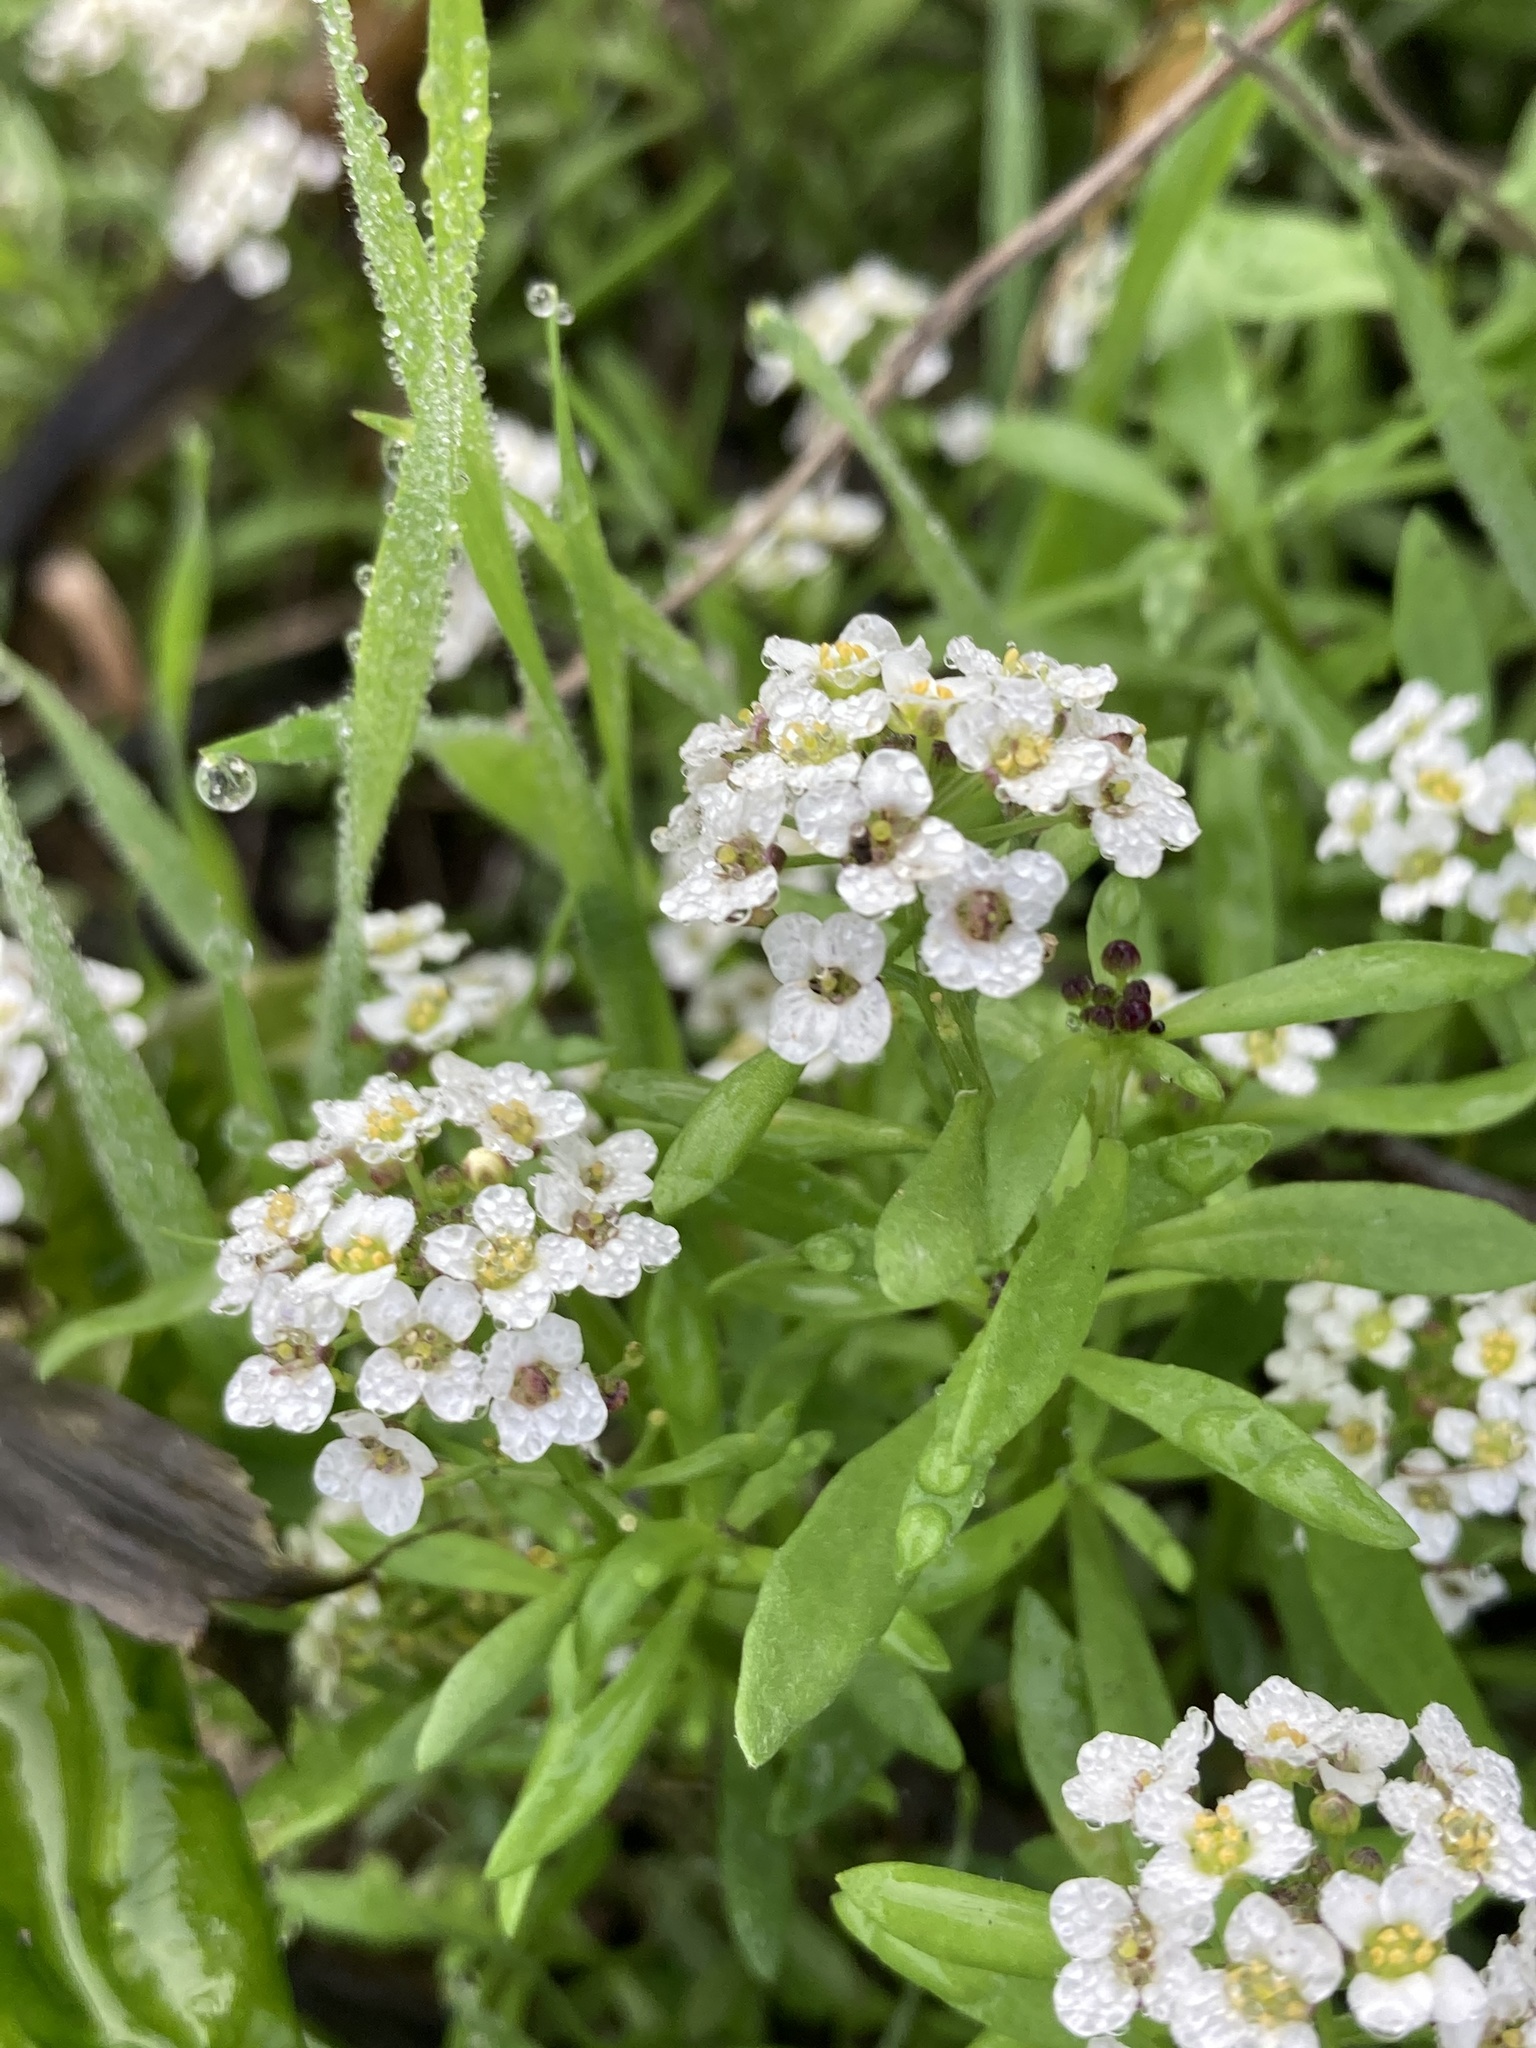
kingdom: Plantae
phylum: Tracheophyta
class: Magnoliopsida
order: Brassicales
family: Brassicaceae
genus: Lobularia
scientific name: Lobularia maritima
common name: Sweet alison
